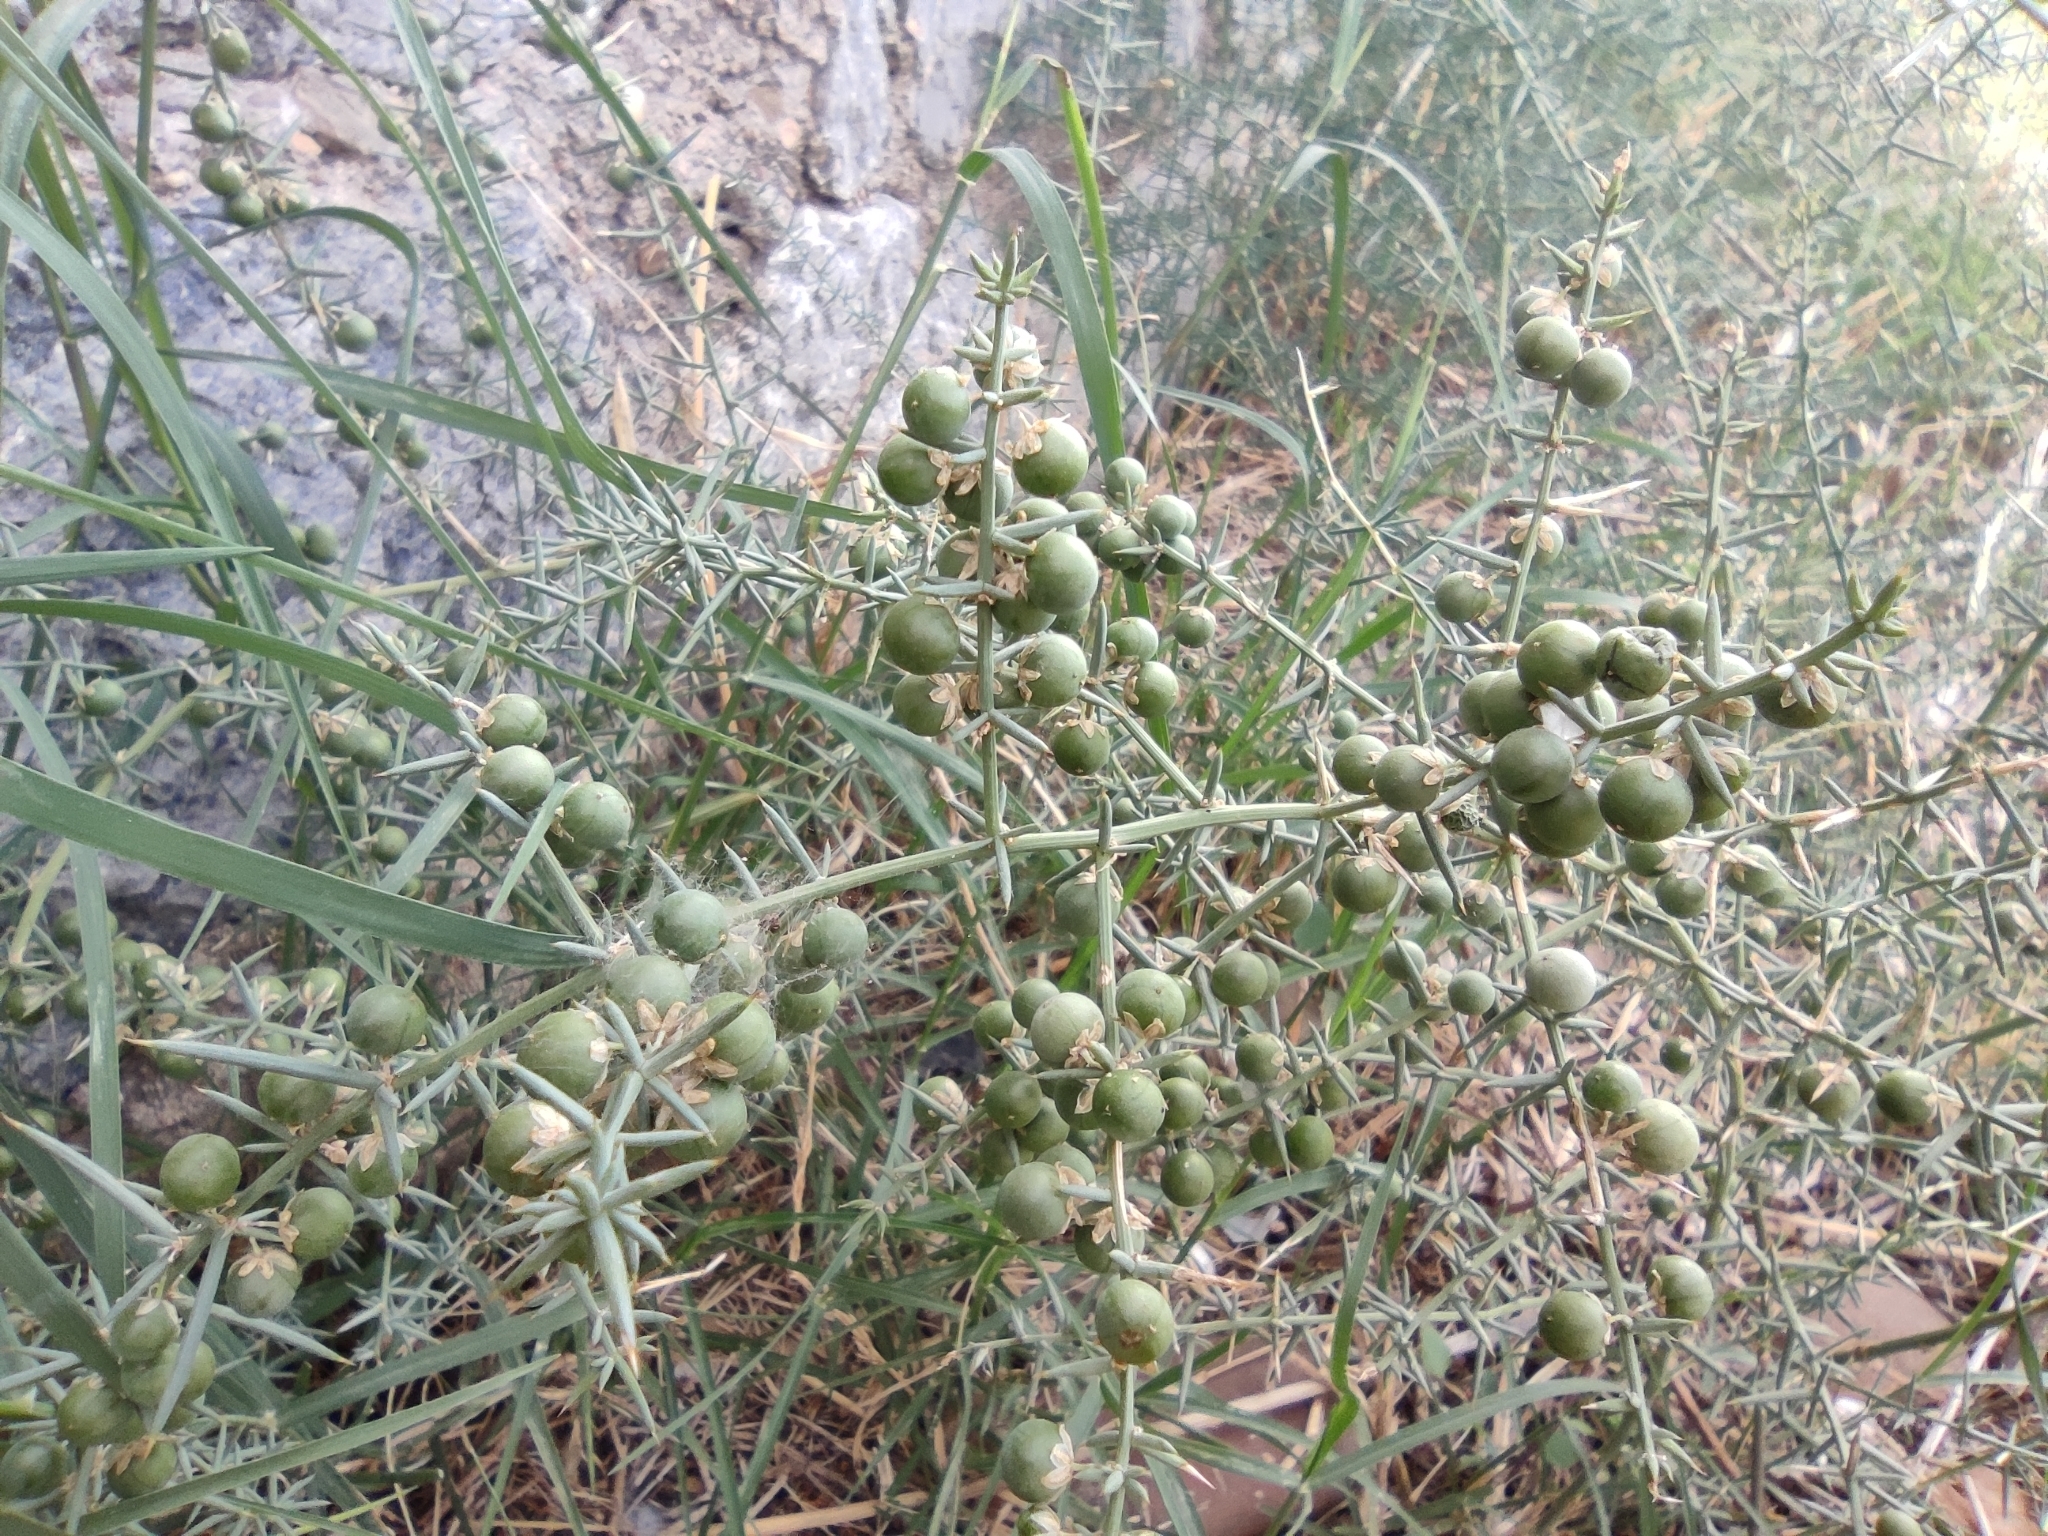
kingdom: Plantae
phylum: Tracheophyta
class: Liliopsida
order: Asparagales
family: Asparagaceae
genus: Asparagus
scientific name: Asparagus aphyllus
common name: Mediterranean asparagus
